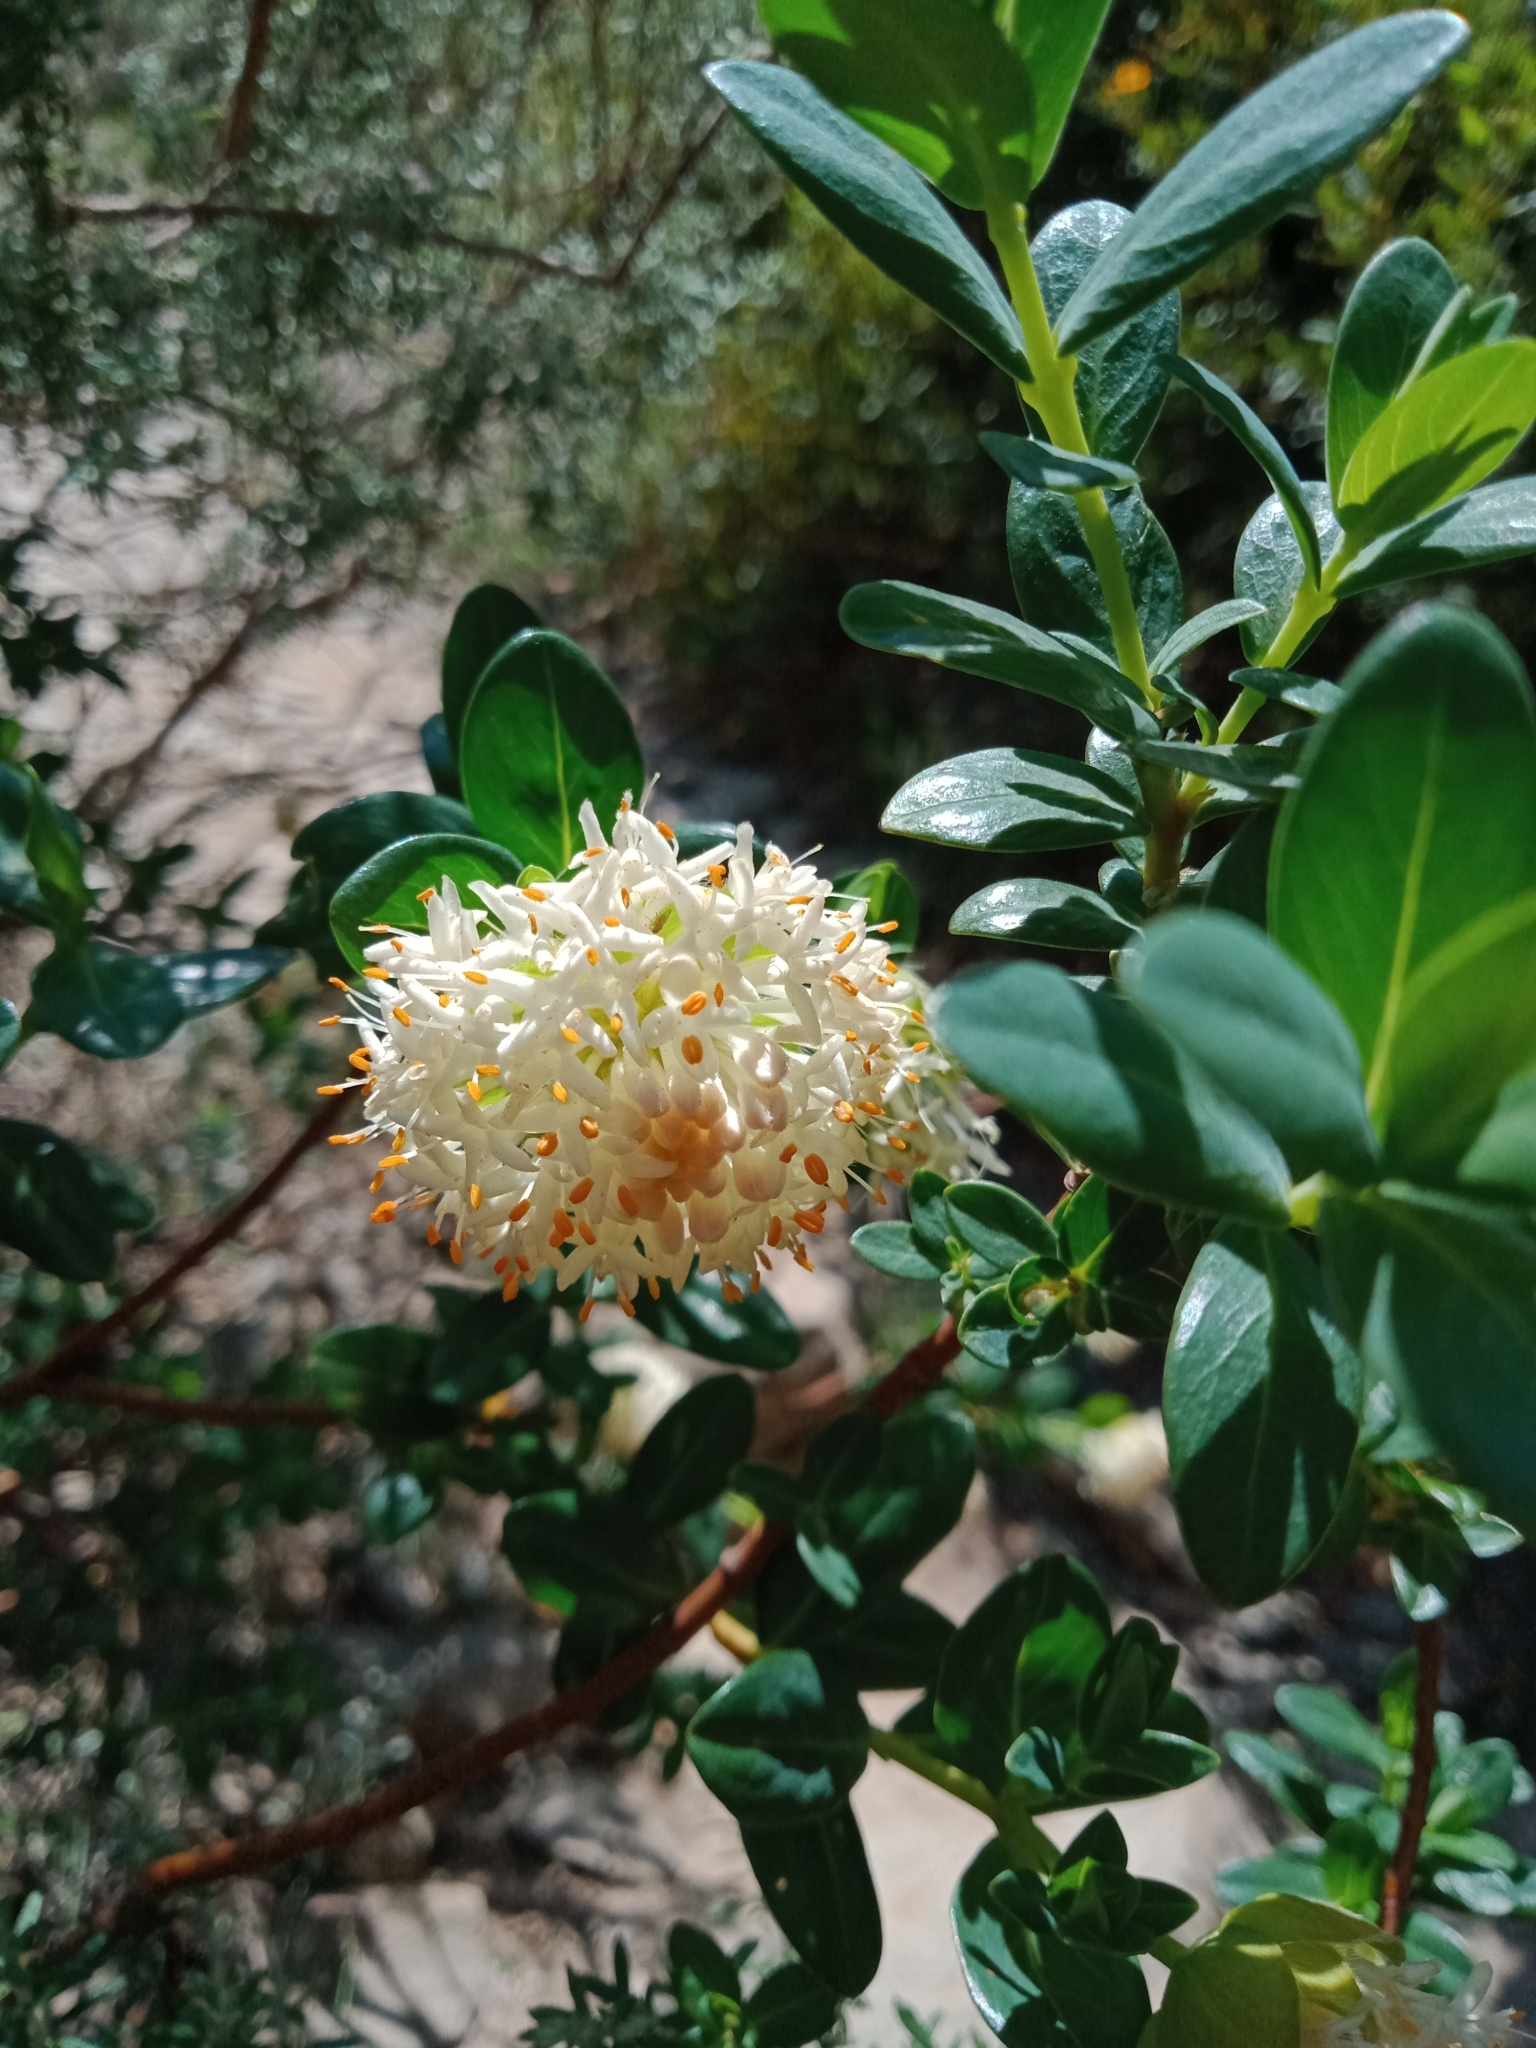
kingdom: Plantae
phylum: Tracheophyta
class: Magnoliopsida
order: Malvales
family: Thymelaeaceae
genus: Pimelea
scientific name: Pimelea ligustrina
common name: Tall riceflower
